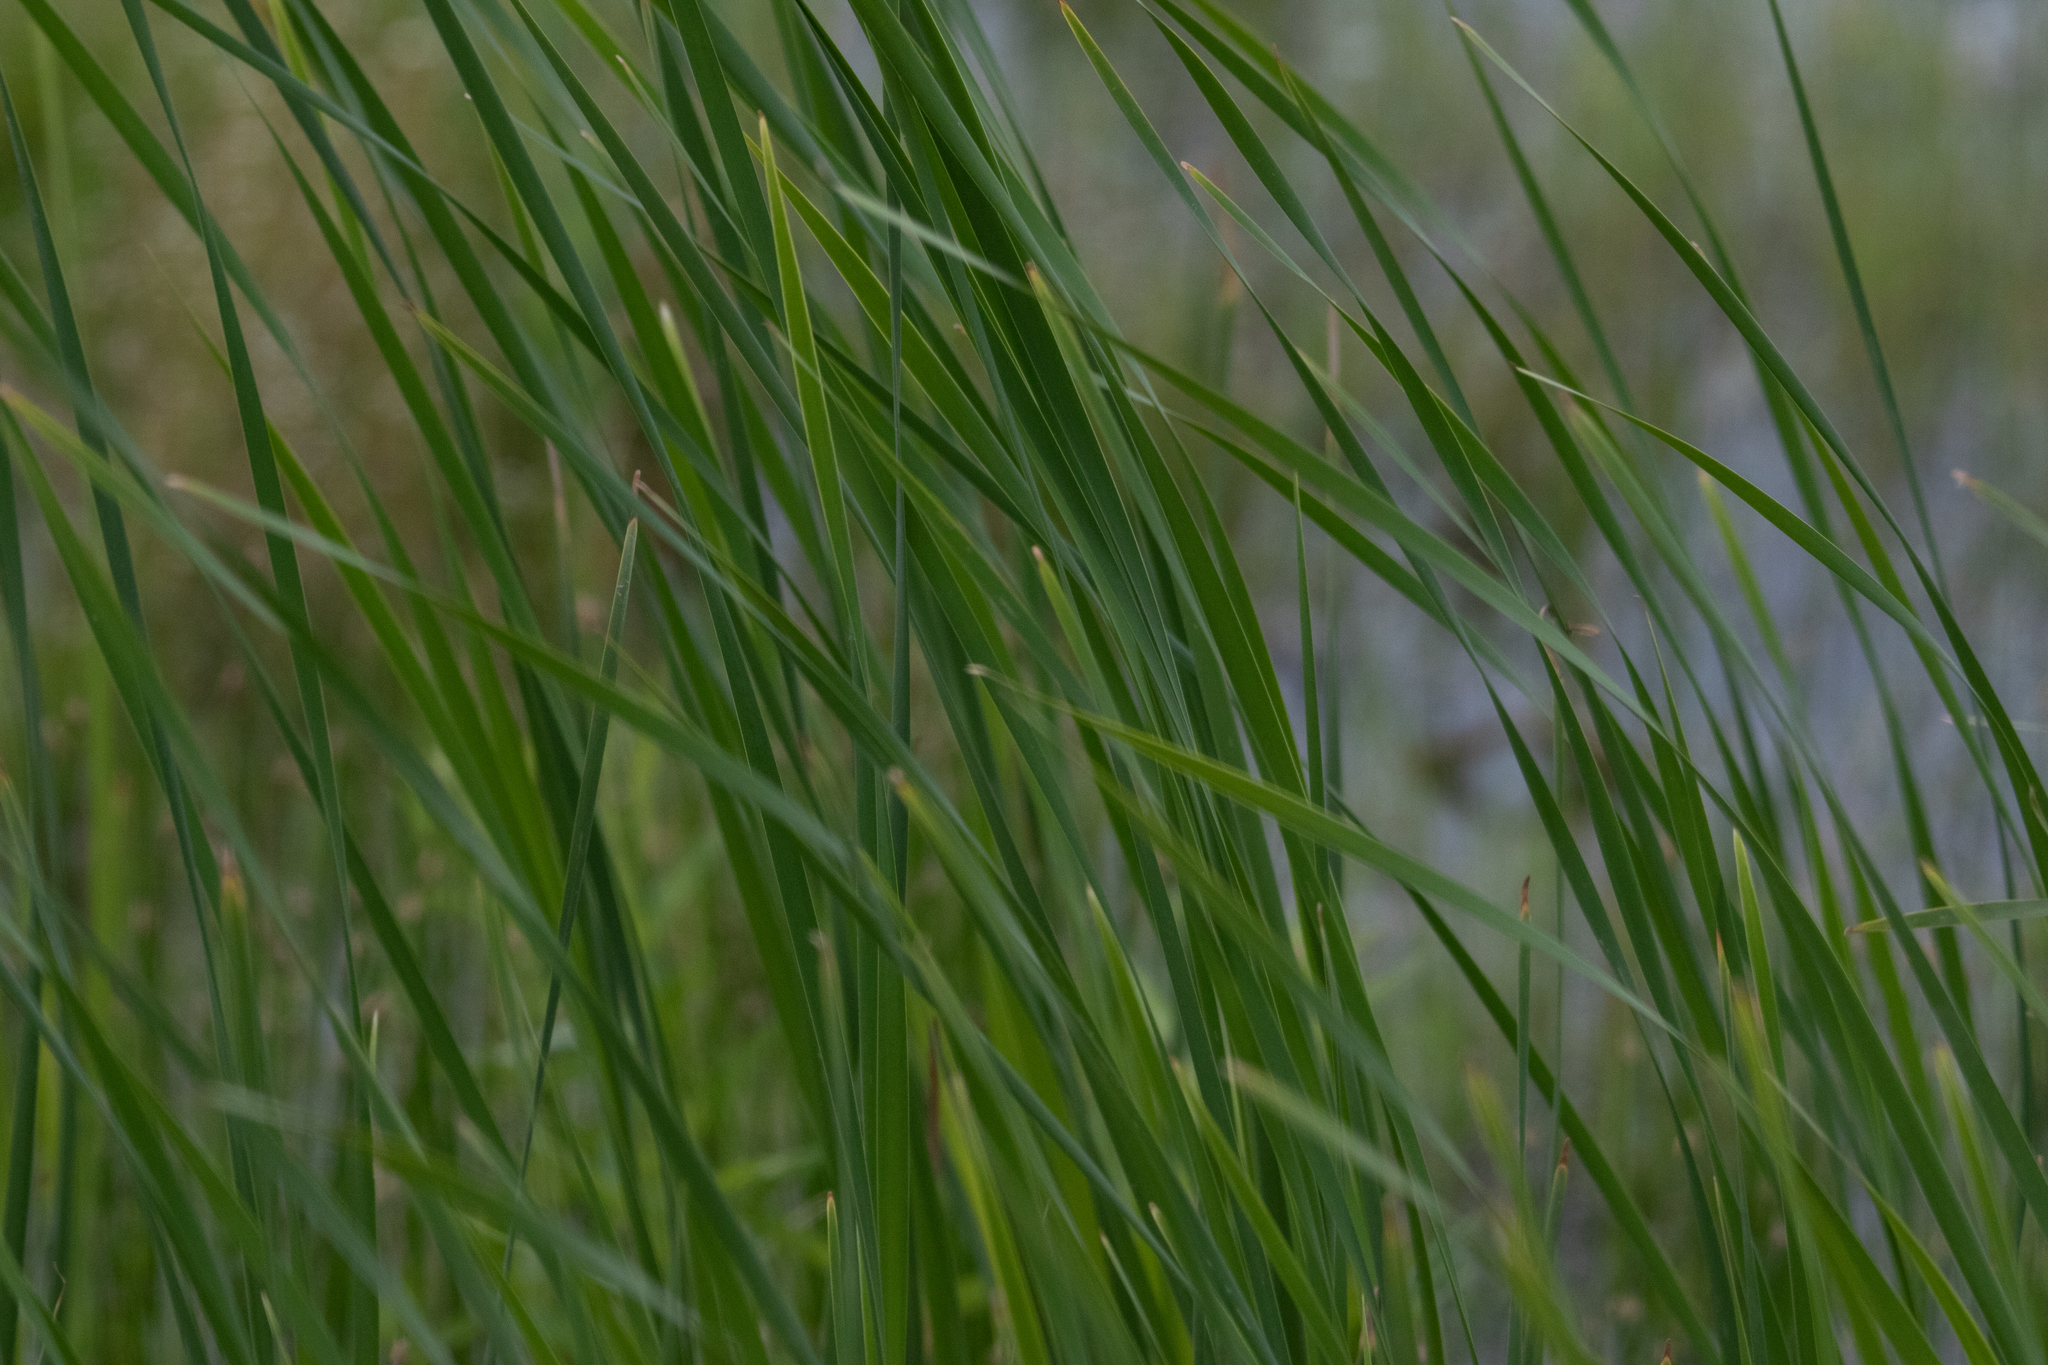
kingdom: Plantae
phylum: Tracheophyta
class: Liliopsida
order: Poales
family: Typhaceae
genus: Typha
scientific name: Typha angustifolia
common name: Lesser bulrush
